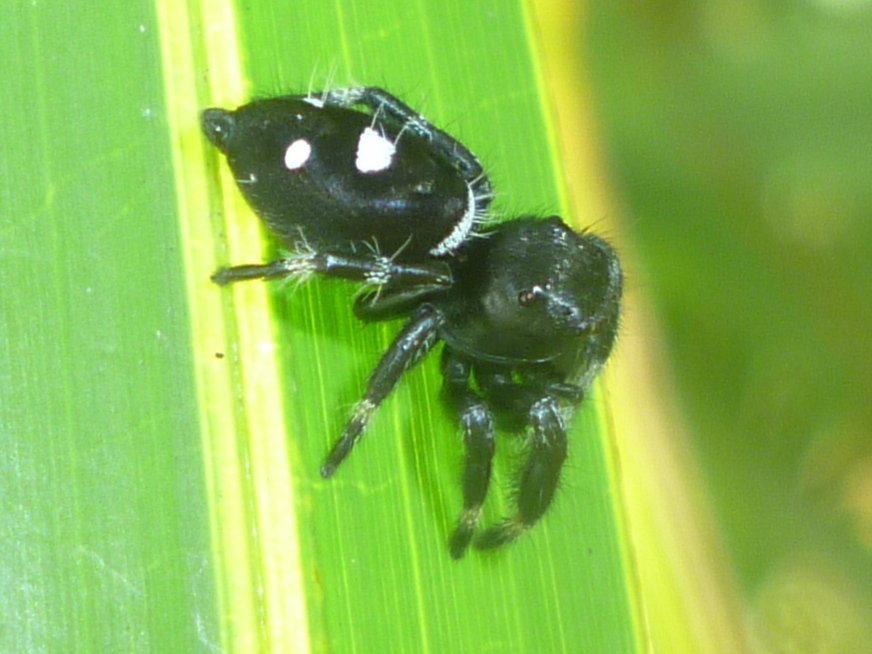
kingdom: Animalia
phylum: Arthropoda
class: Arachnida
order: Araneae
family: Salticidae
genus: Phidippus
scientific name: Phidippus regius
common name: Regal jumper
